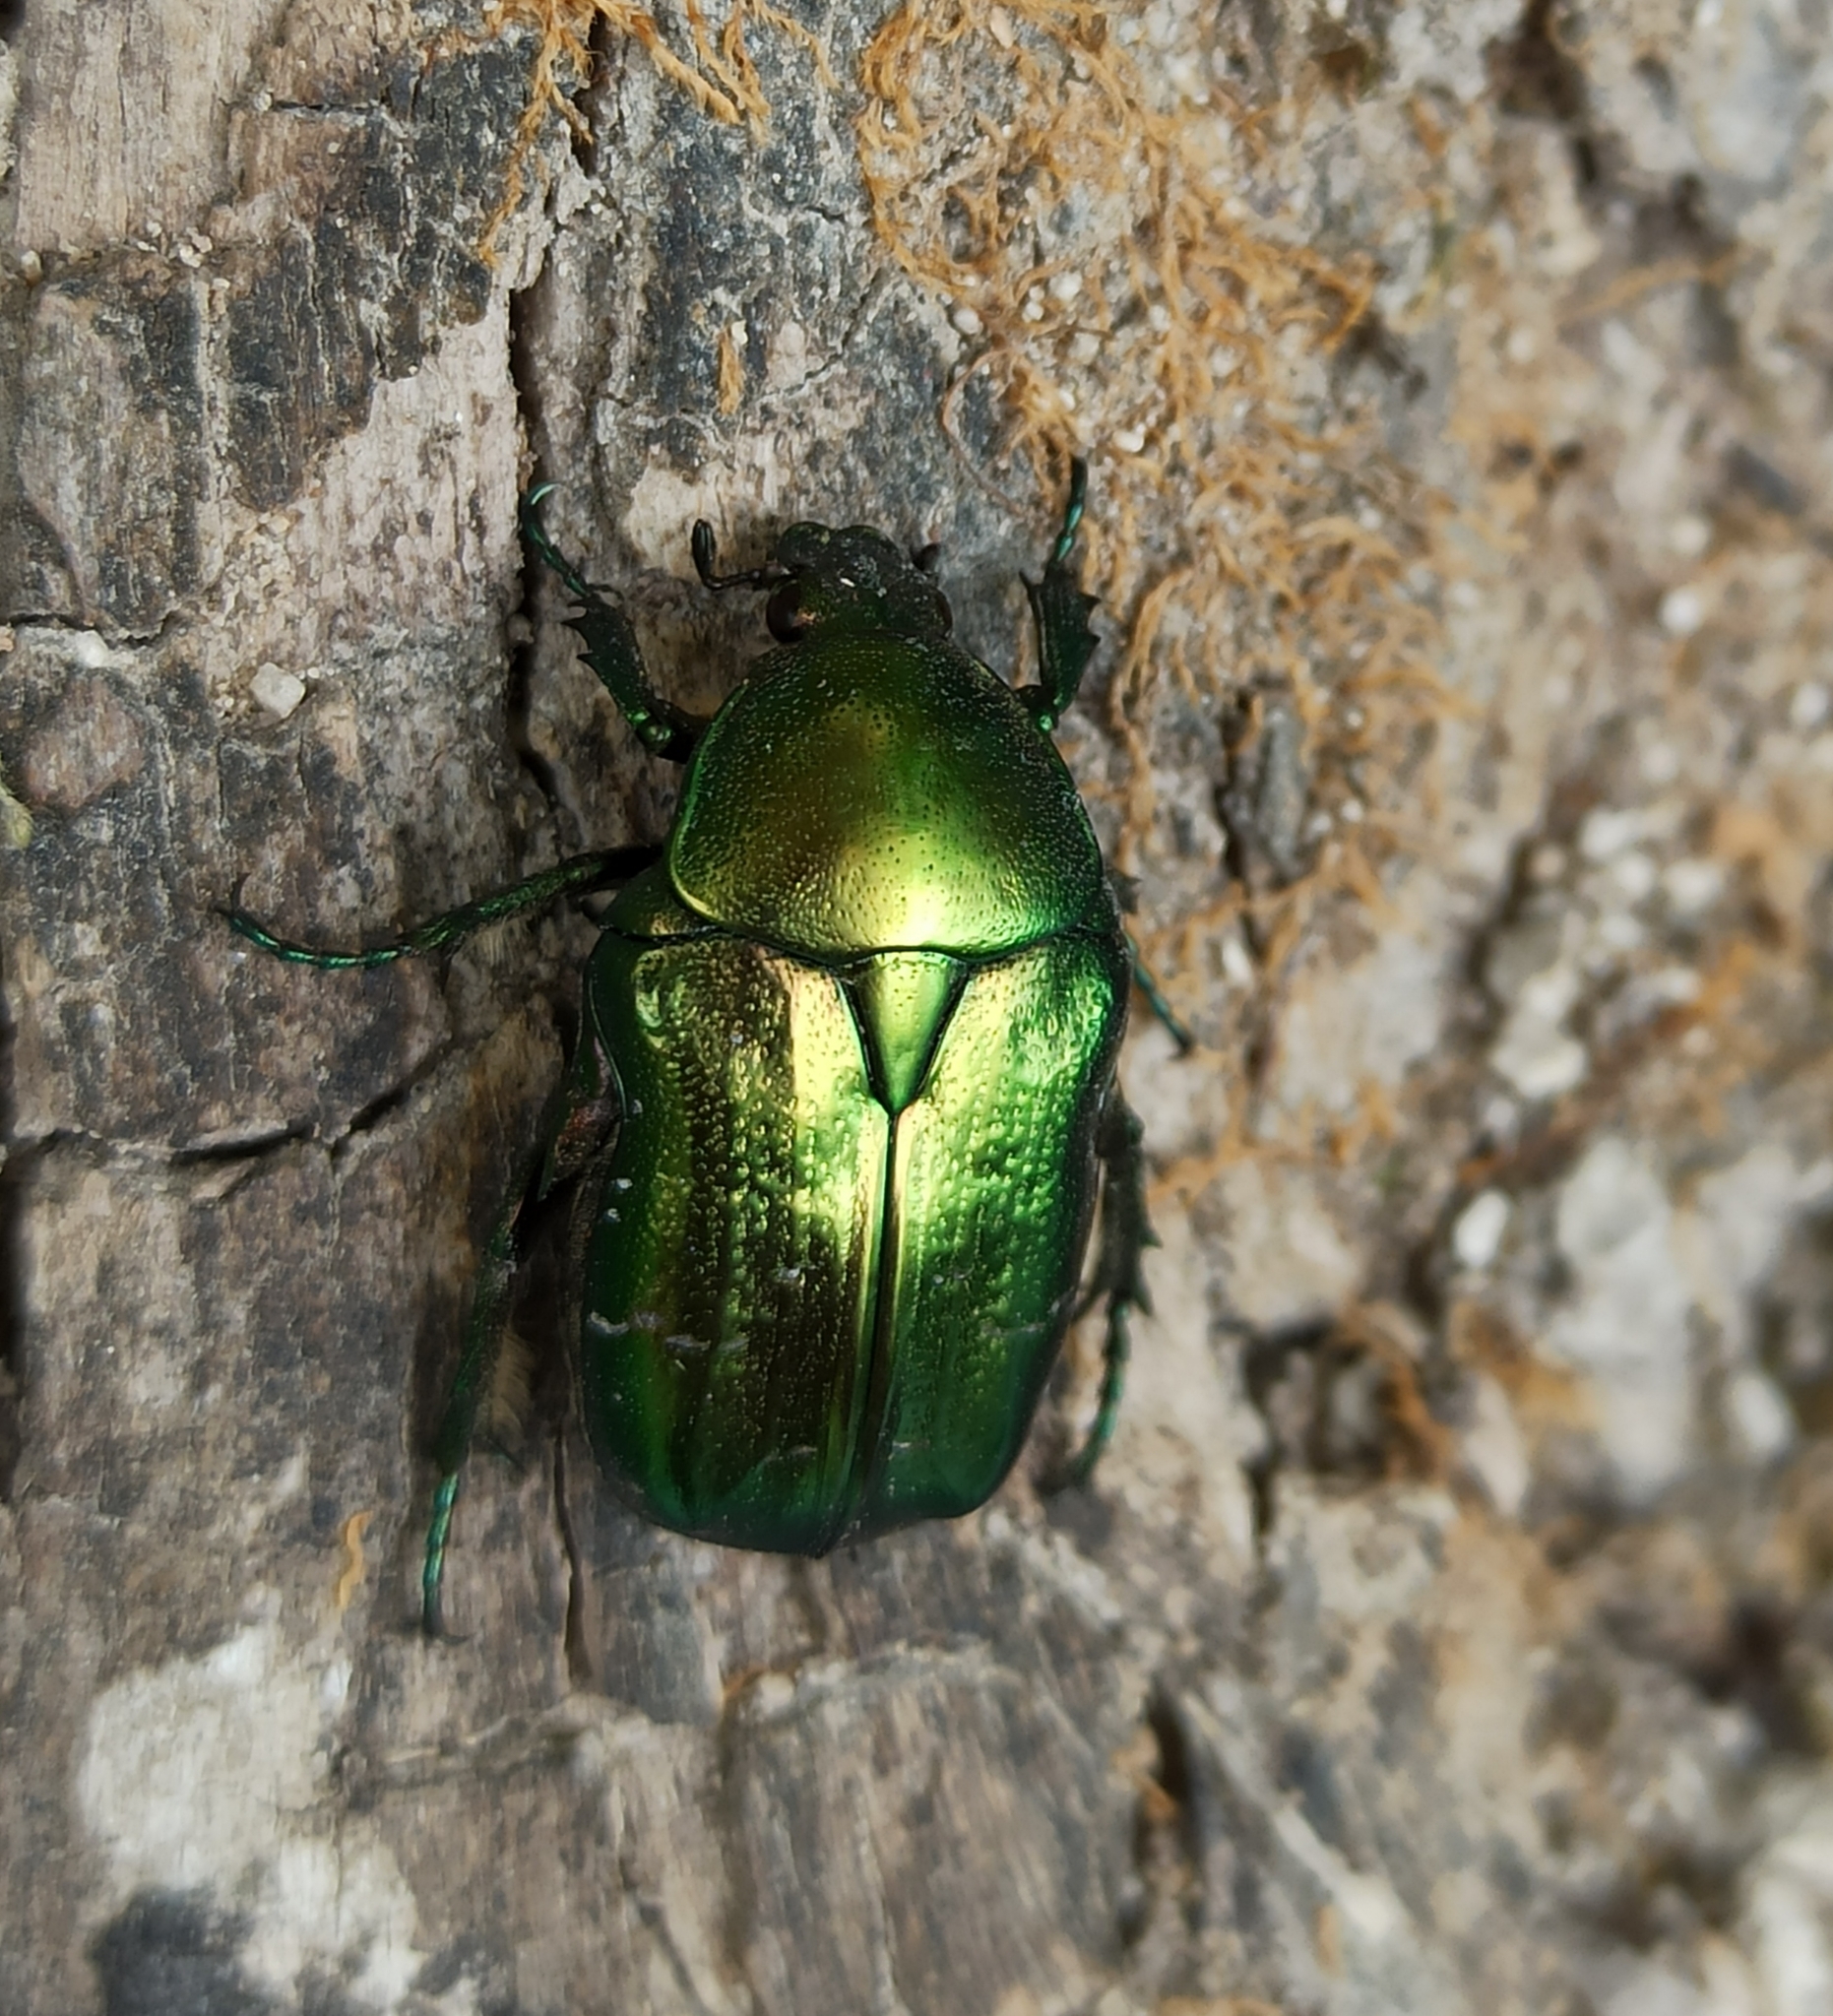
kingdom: Animalia
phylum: Arthropoda
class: Insecta
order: Coleoptera
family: Scarabaeidae
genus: Cetonia
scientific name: Cetonia aurata
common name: Rose chafer
